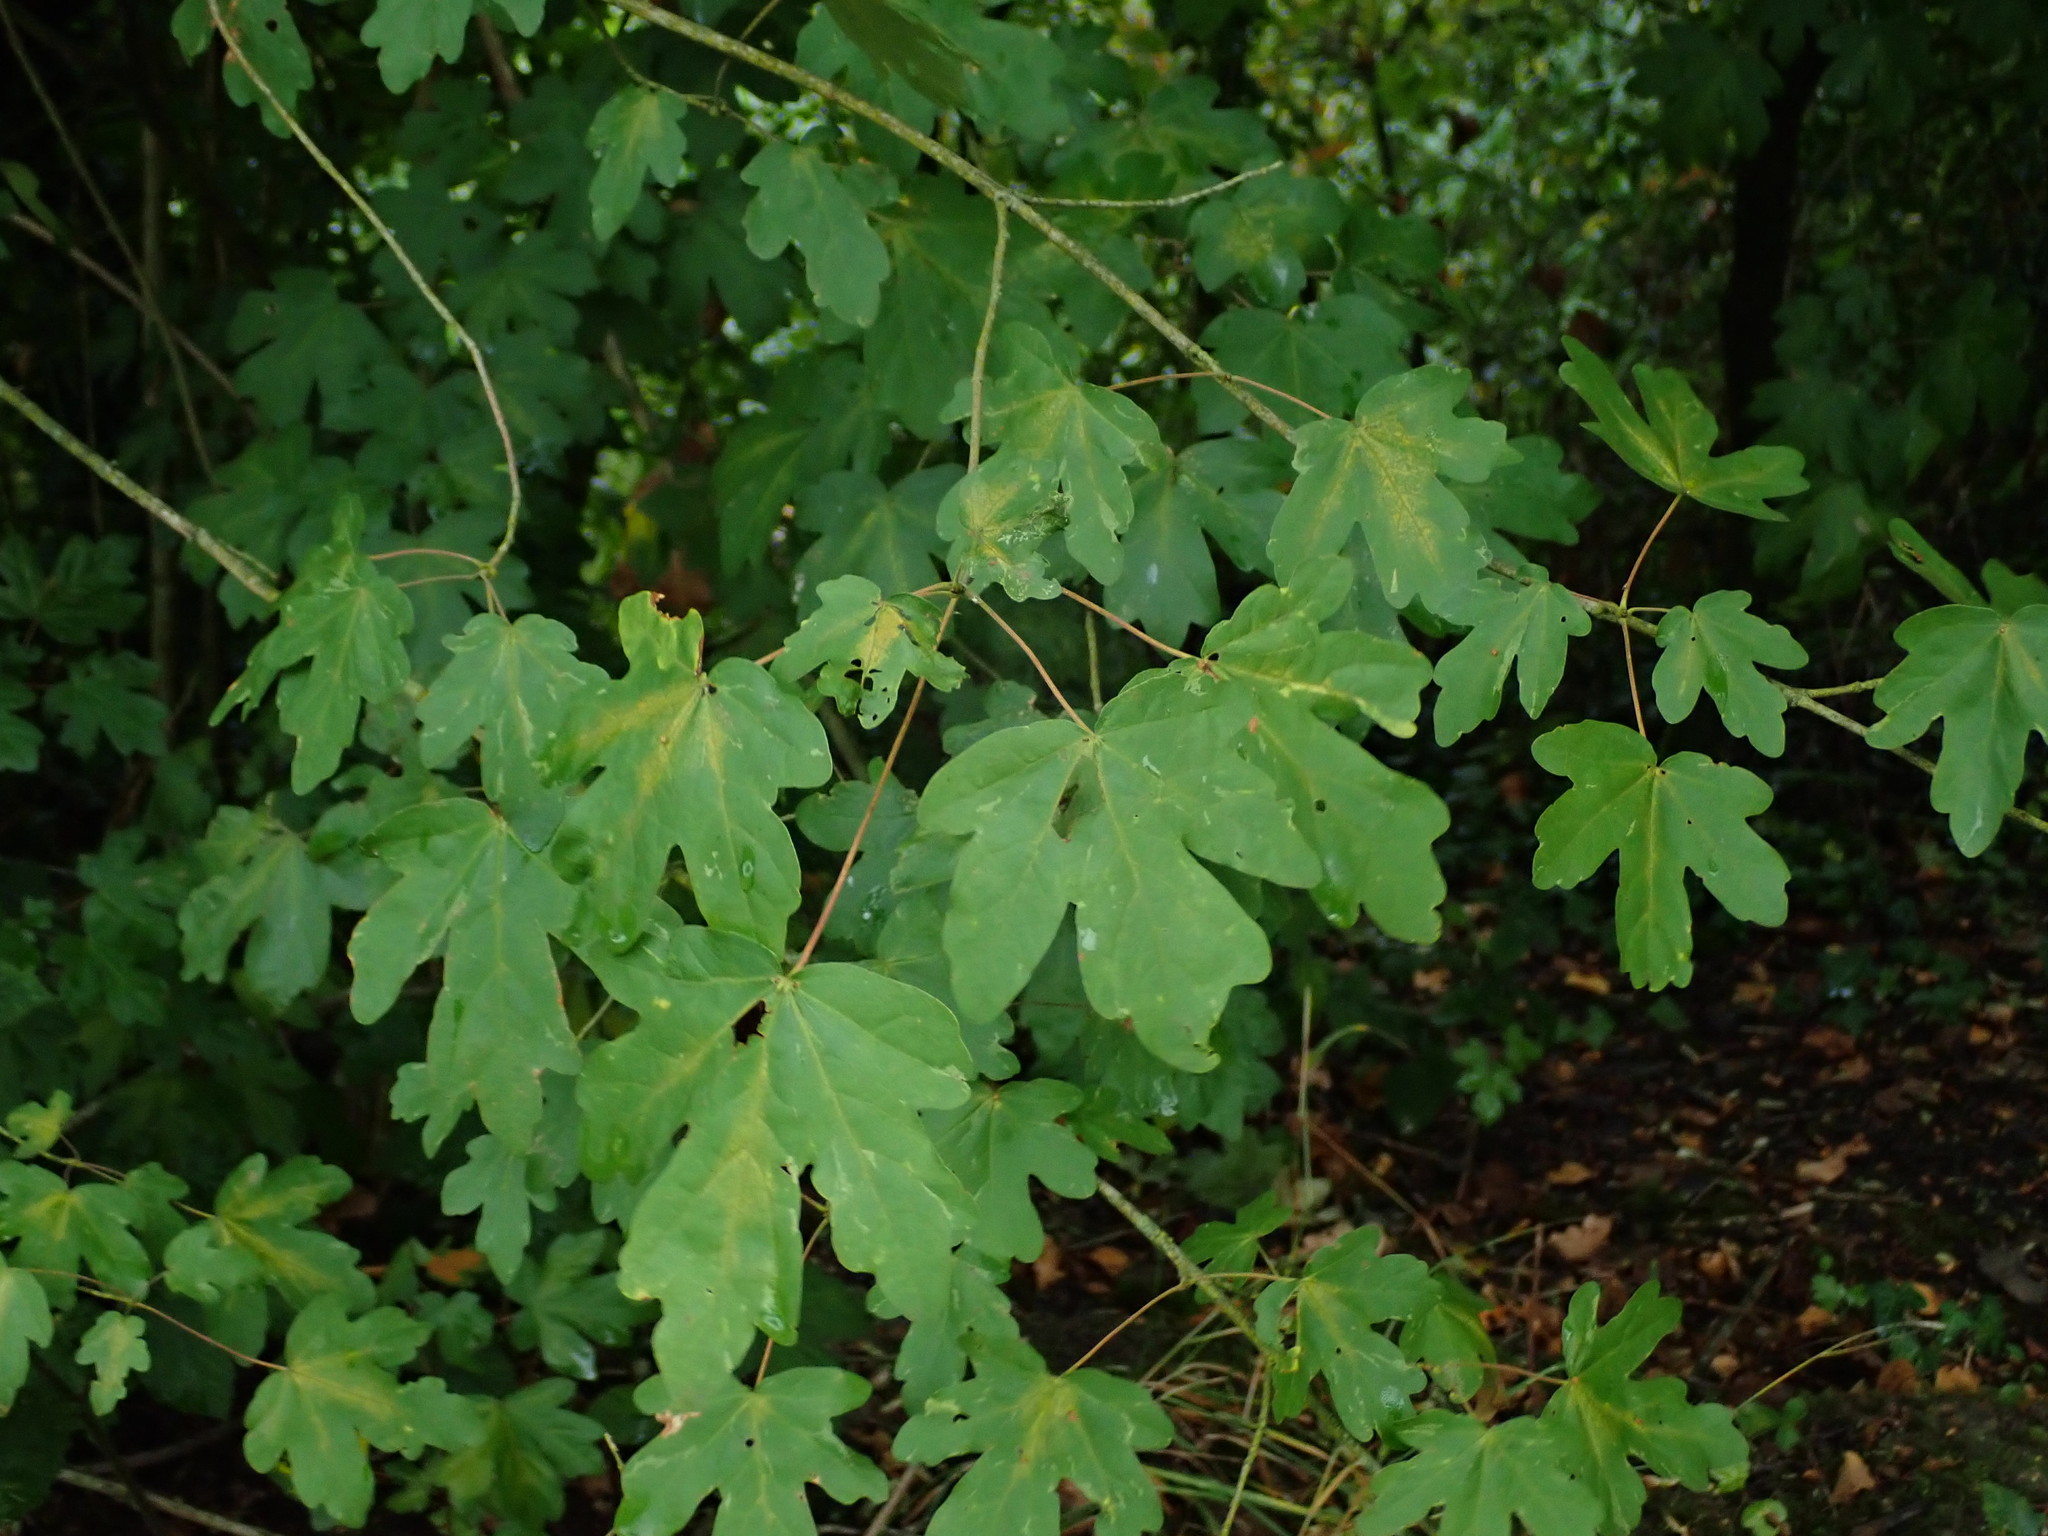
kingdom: Plantae
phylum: Tracheophyta
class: Magnoliopsida
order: Sapindales
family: Sapindaceae
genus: Acer
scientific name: Acer campestre
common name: Field maple
